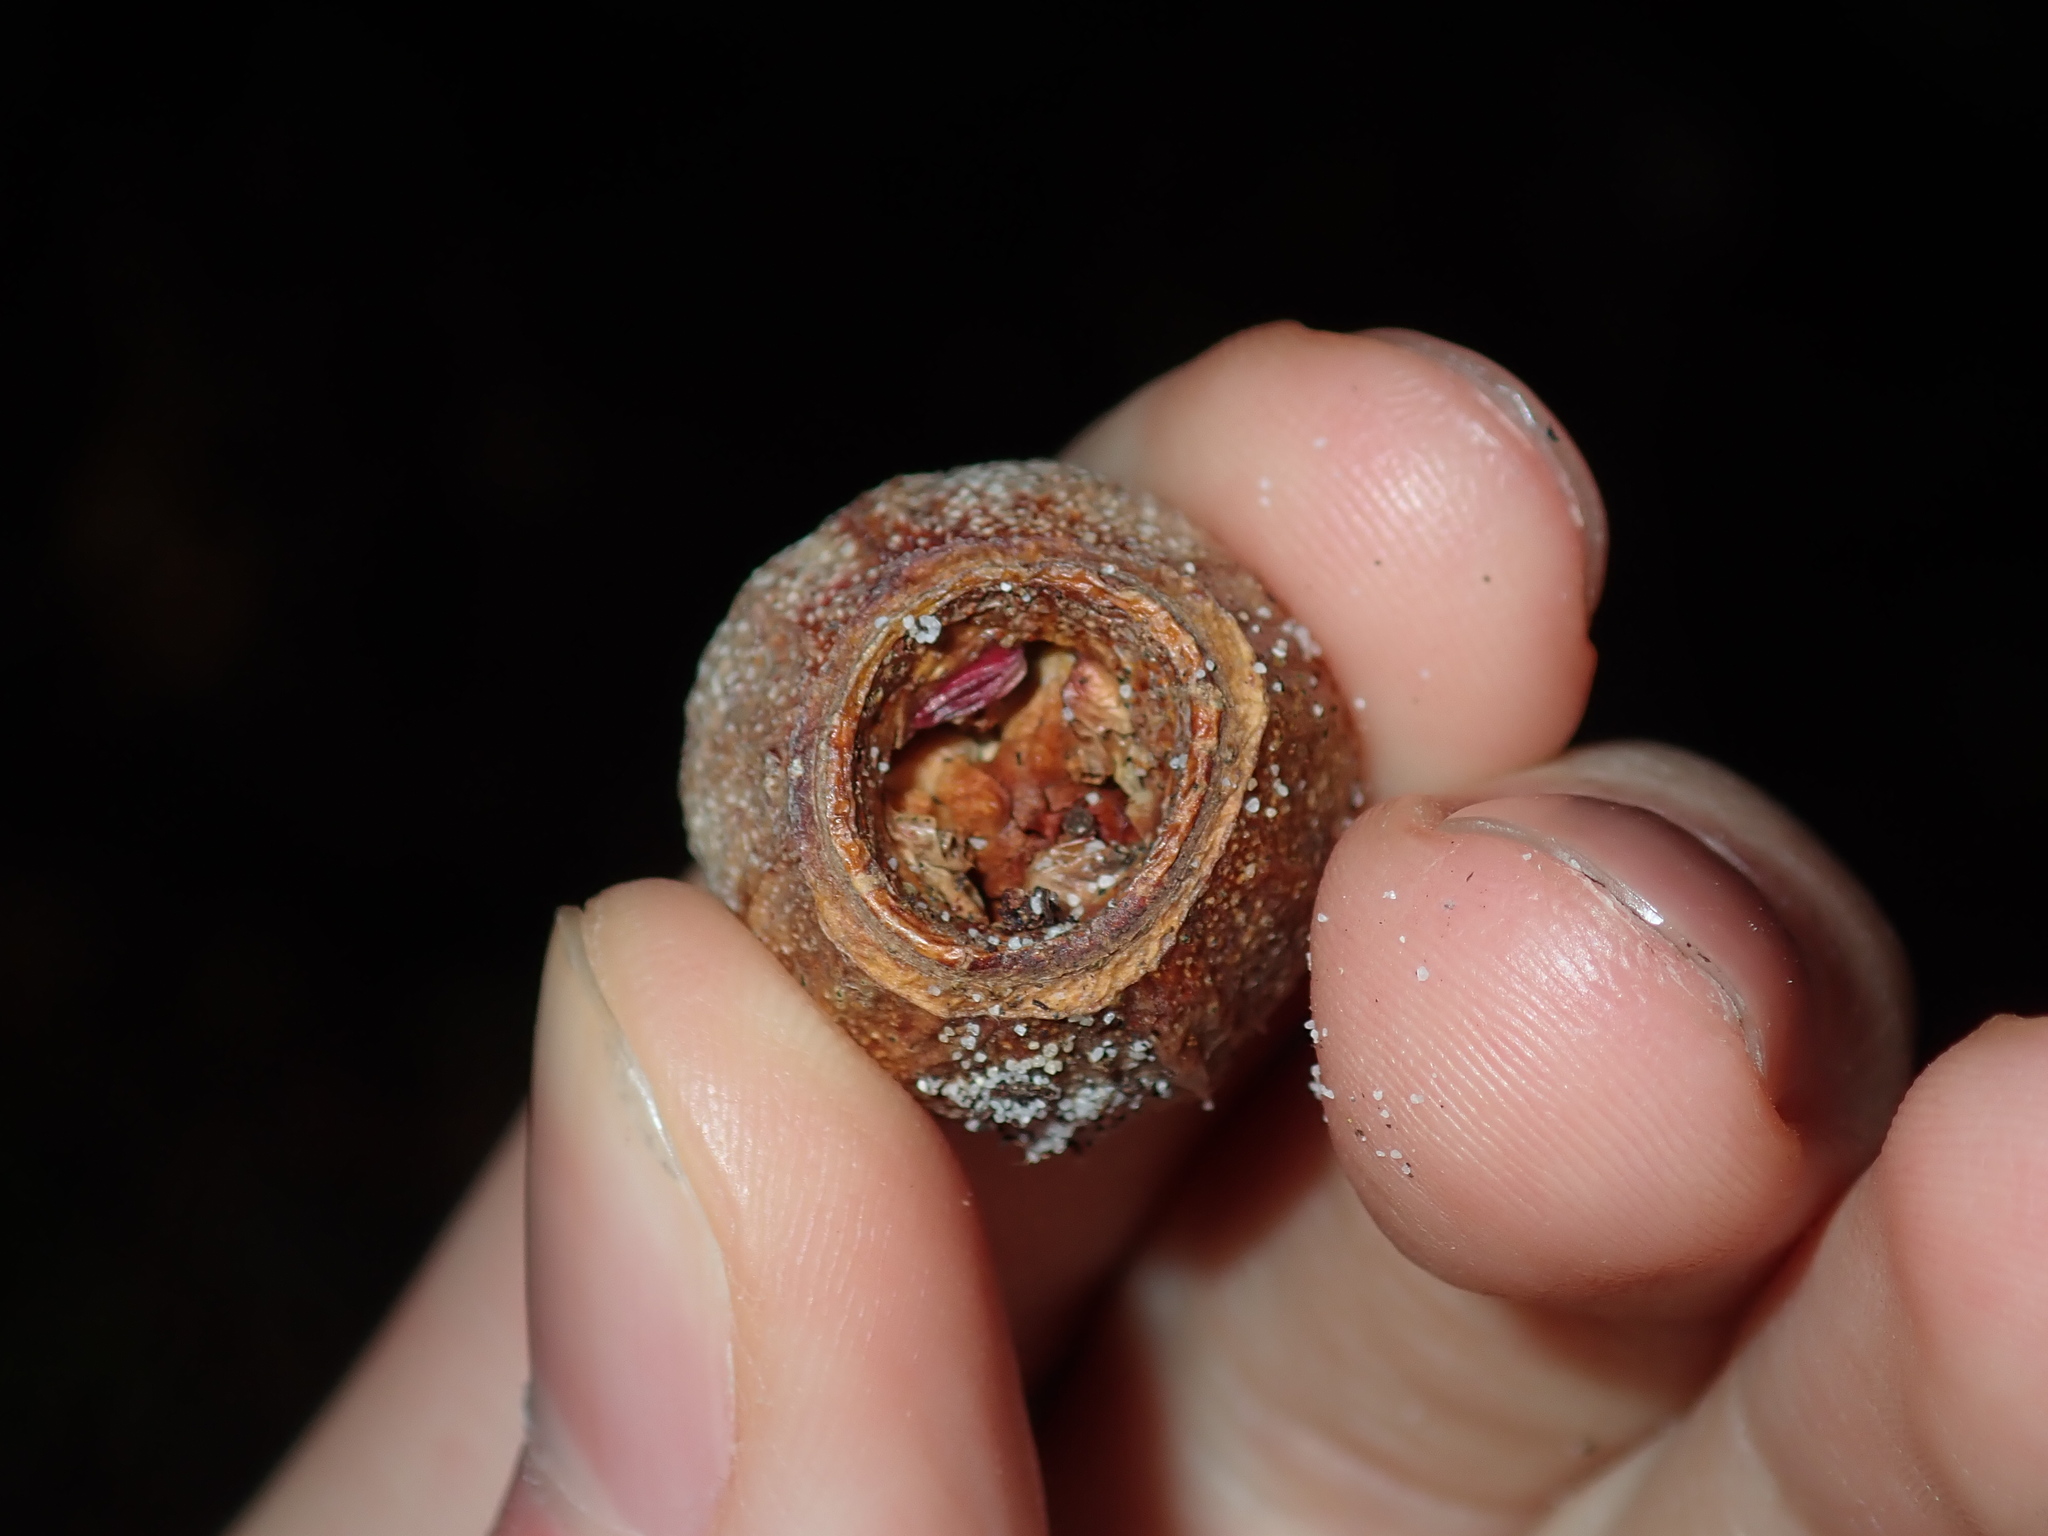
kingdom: Plantae
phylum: Tracheophyta
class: Magnoliopsida
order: Myrtales
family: Myrtaceae
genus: Eucalyptus
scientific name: Eucalyptus planchoniana
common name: Bastard-tallow-wood
